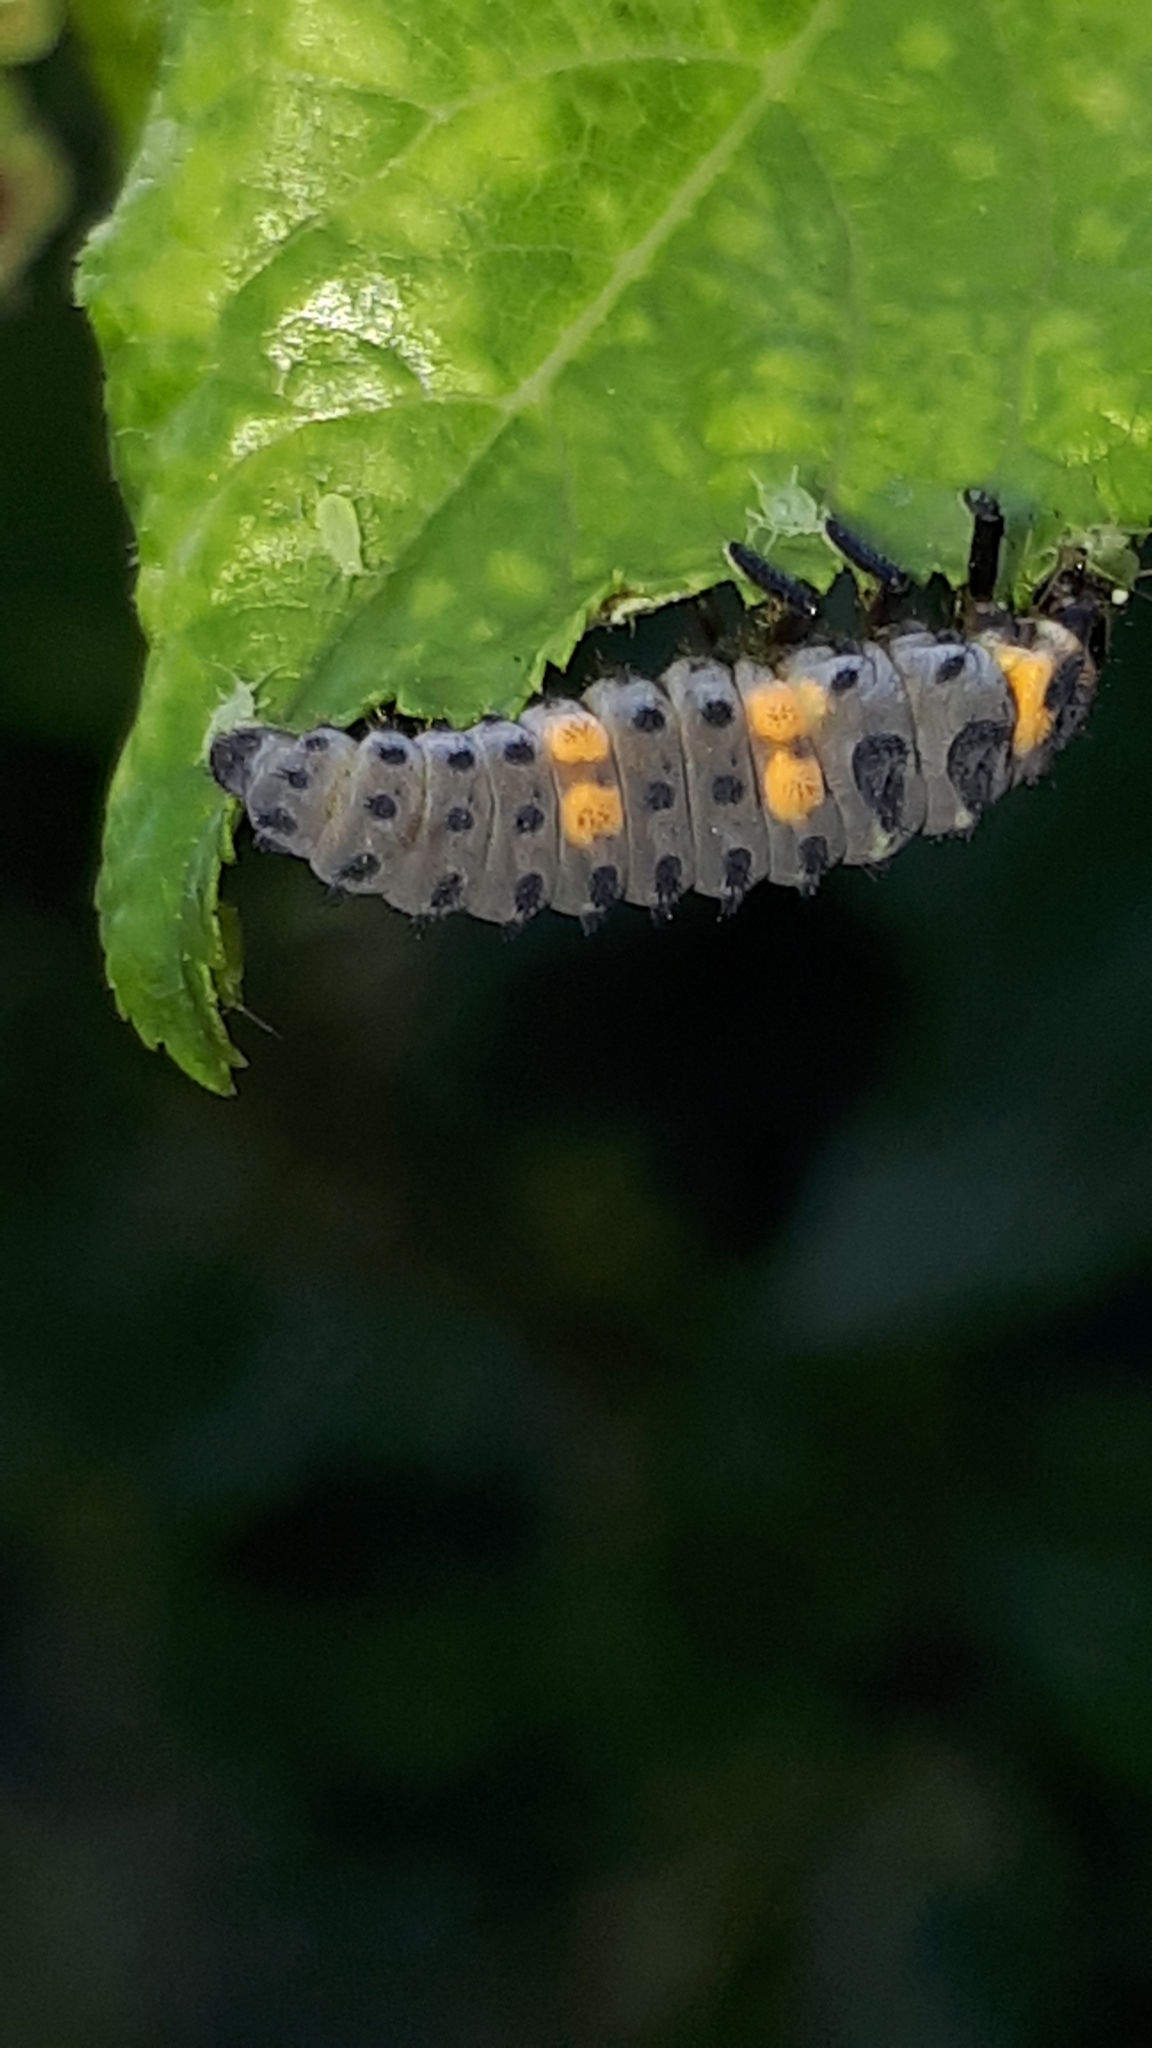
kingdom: Animalia
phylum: Arthropoda
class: Insecta
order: Coleoptera
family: Coccinellidae
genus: Coccinella
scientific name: Coccinella septempunctata
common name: Sevenspotted lady beetle
